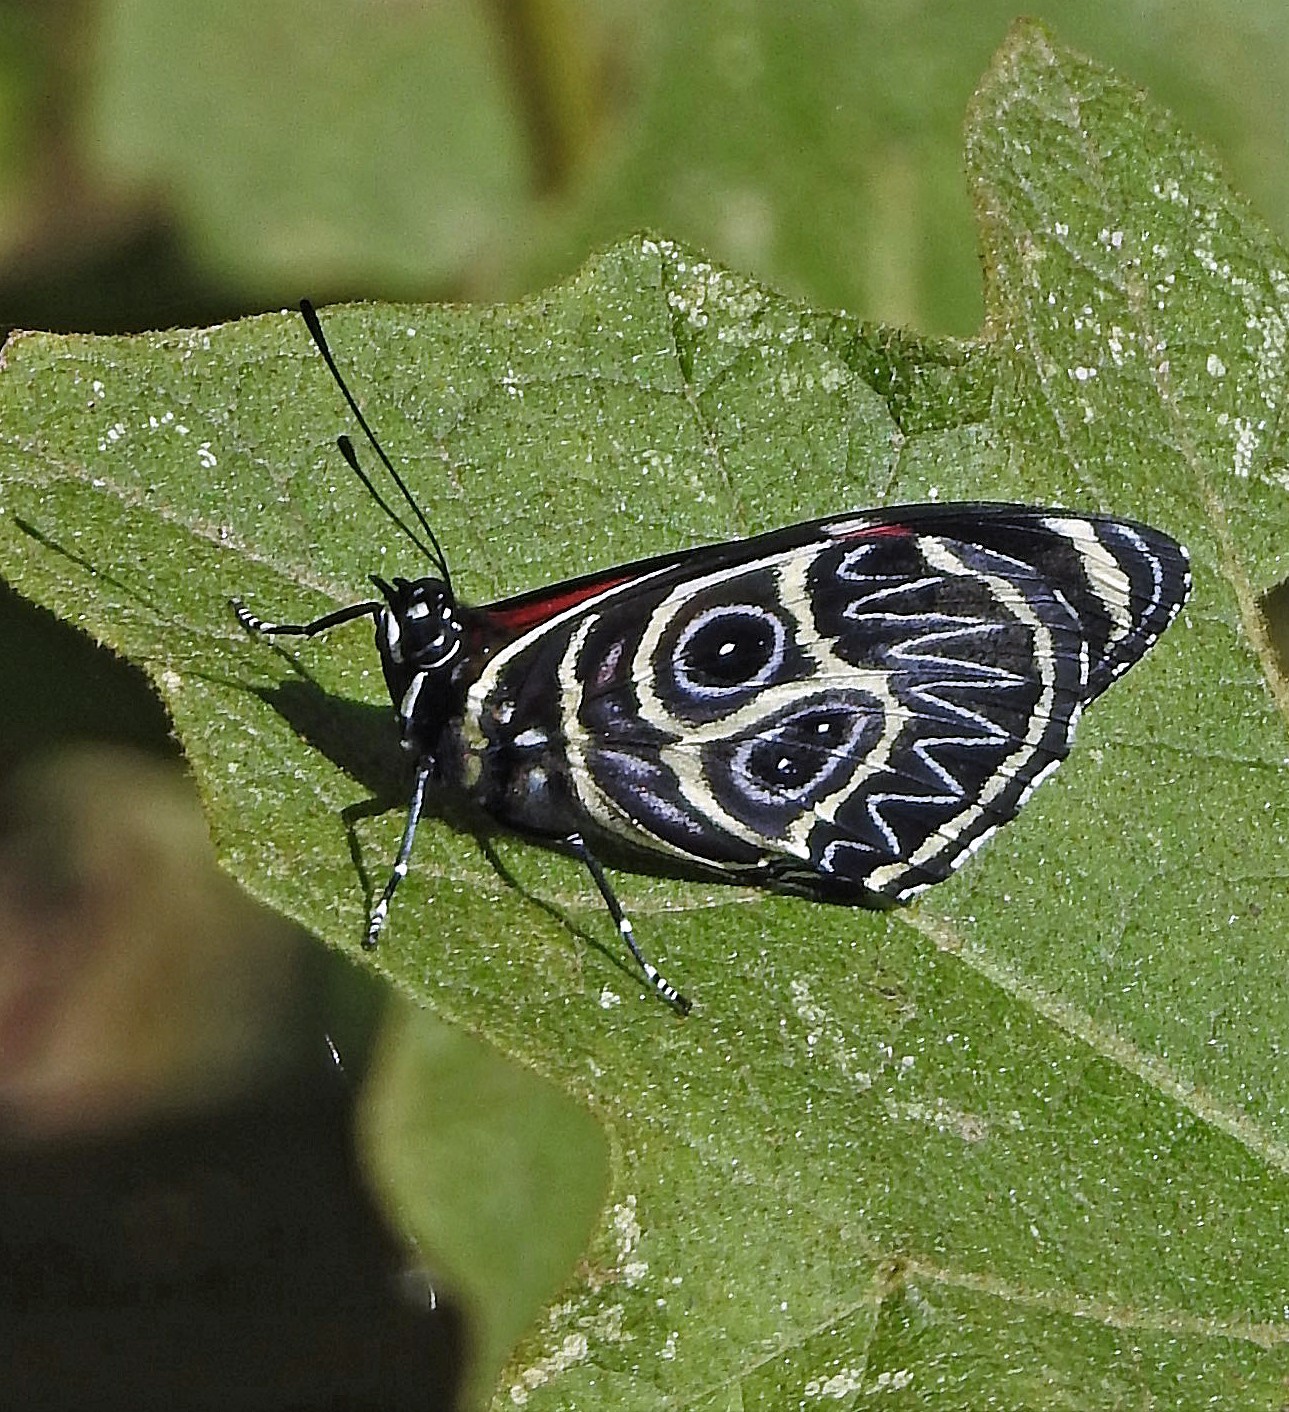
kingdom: Animalia
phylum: Arthropoda
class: Insecta
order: Lepidoptera
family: Nymphalidae
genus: Catagramma
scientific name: Catagramma Callicore sorana
